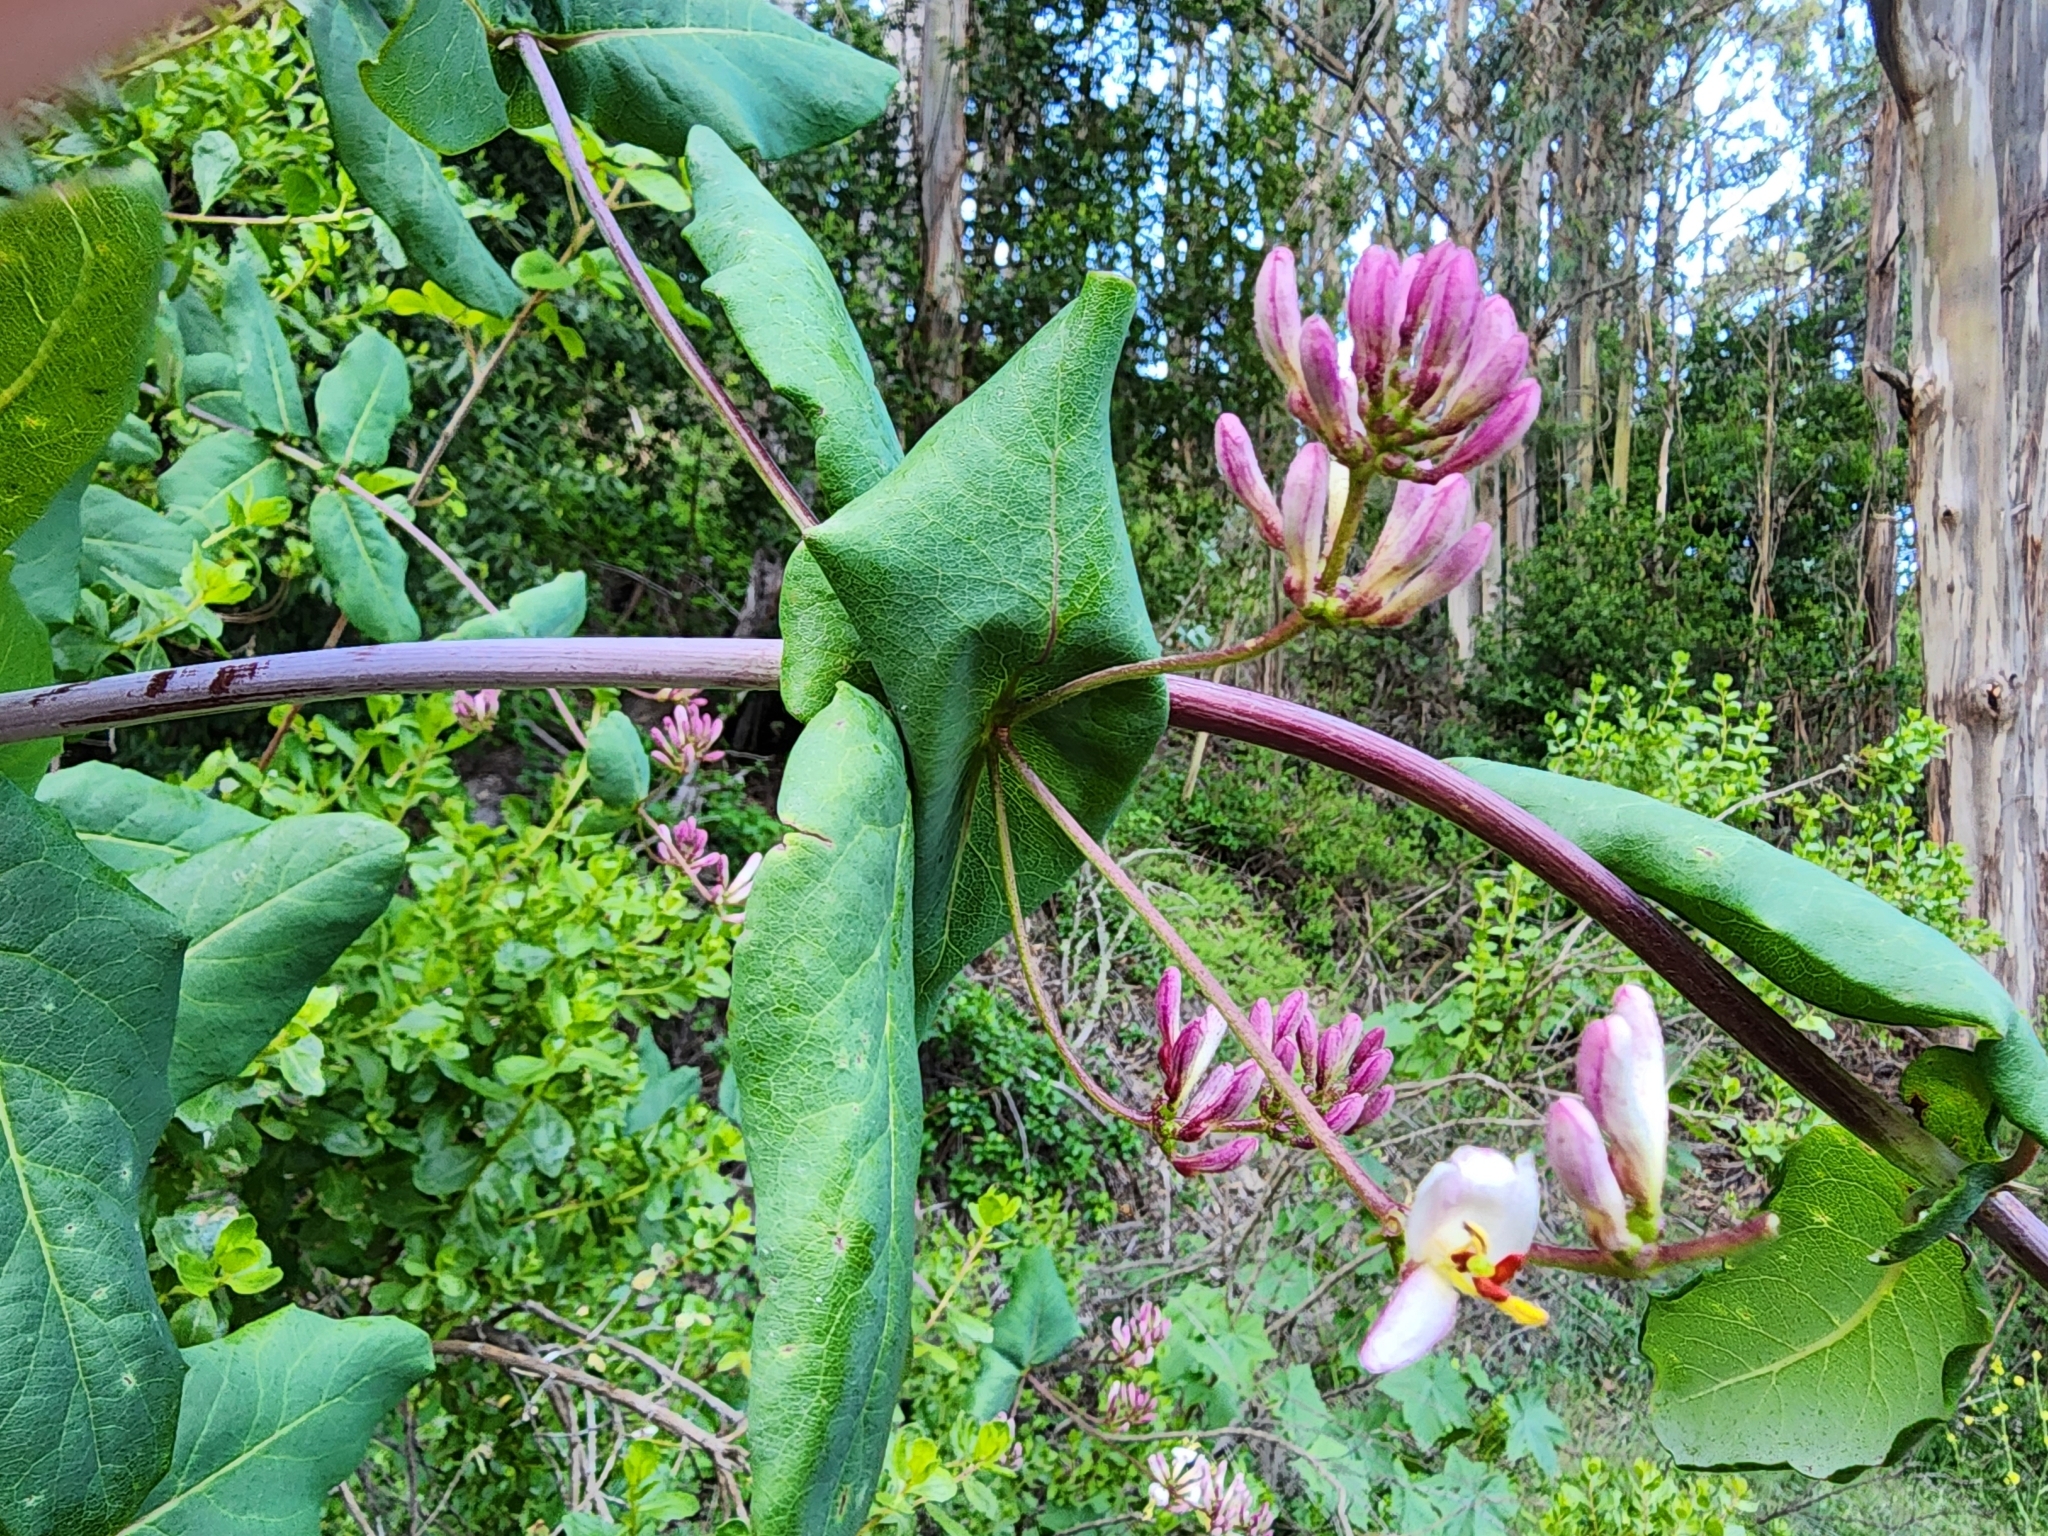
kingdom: Plantae
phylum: Tracheophyta
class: Magnoliopsida
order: Dipsacales
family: Caprifoliaceae
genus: Lonicera
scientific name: Lonicera hispidula
